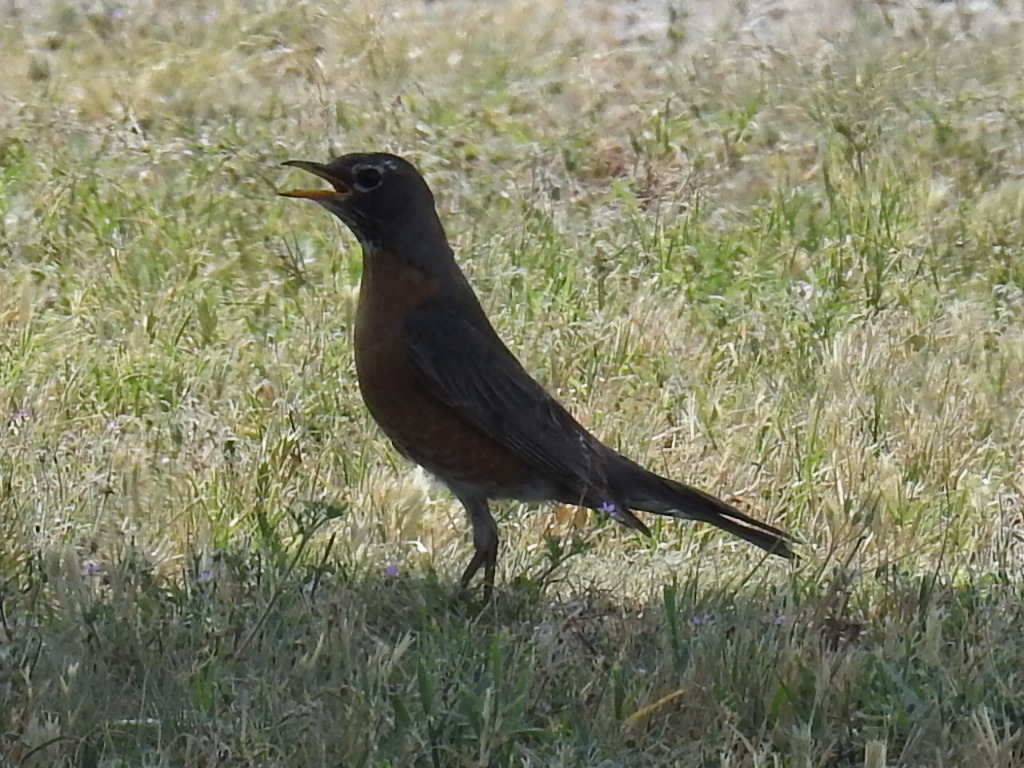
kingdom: Animalia
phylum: Chordata
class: Aves
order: Passeriformes
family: Turdidae
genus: Turdus
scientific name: Turdus migratorius
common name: American robin
